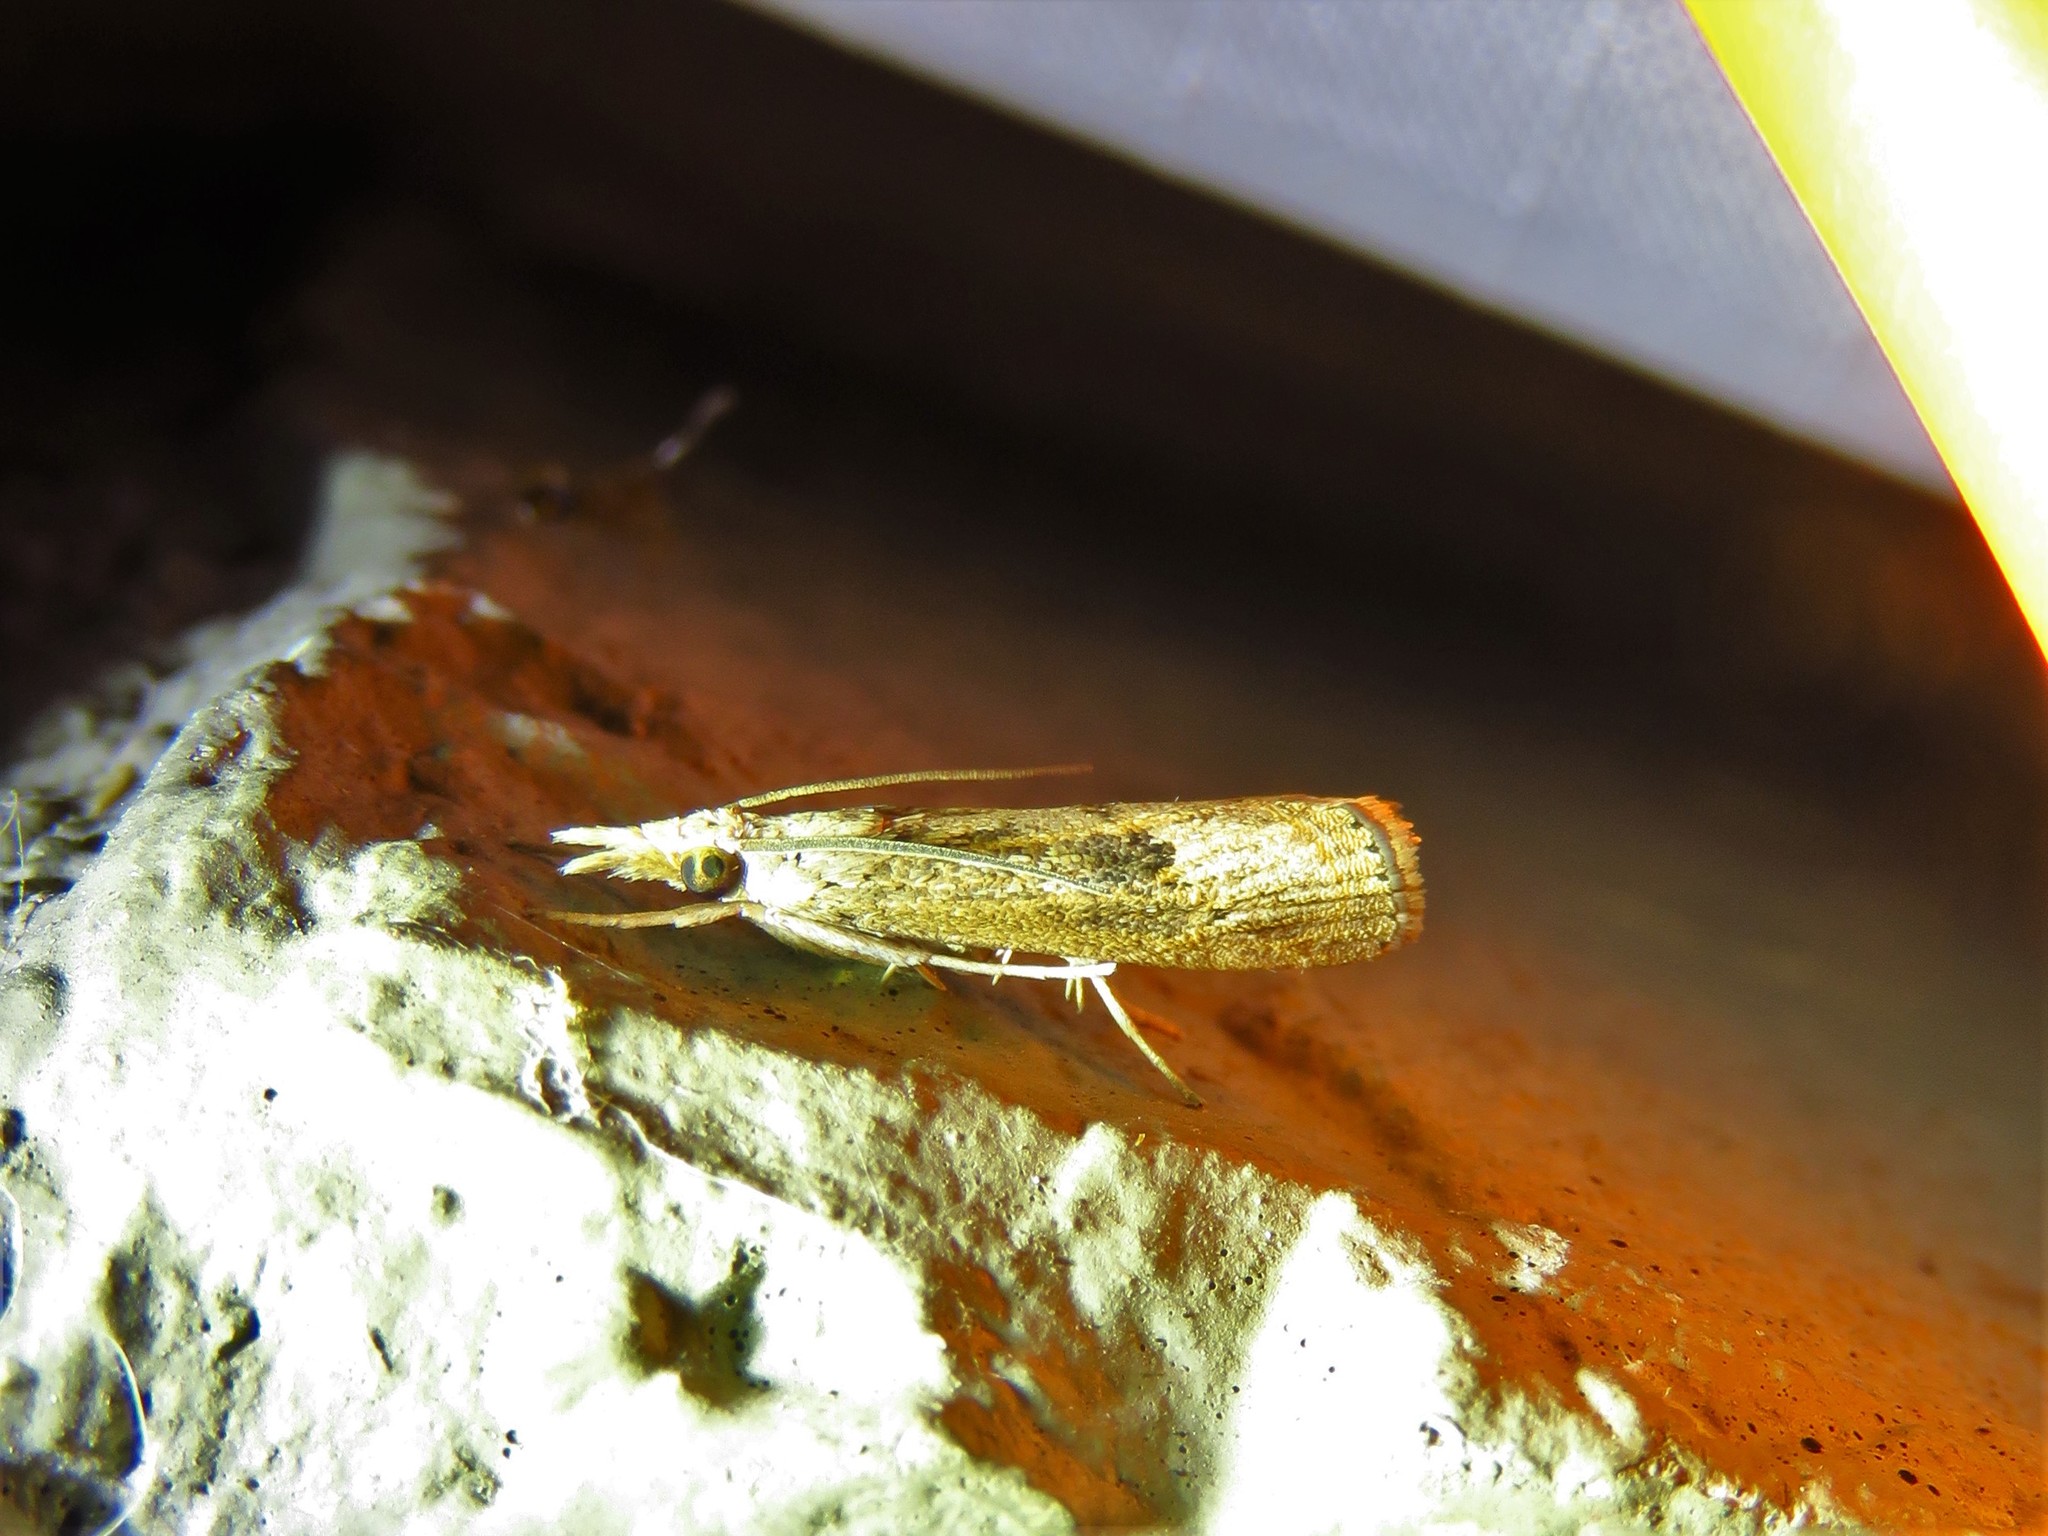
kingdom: Animalia
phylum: Arthropoda
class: Insecta
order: Lepidoptera
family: Crambidae
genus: Parapediasia
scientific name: Parapediasia teterellus
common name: Bluegrass webworm moth
